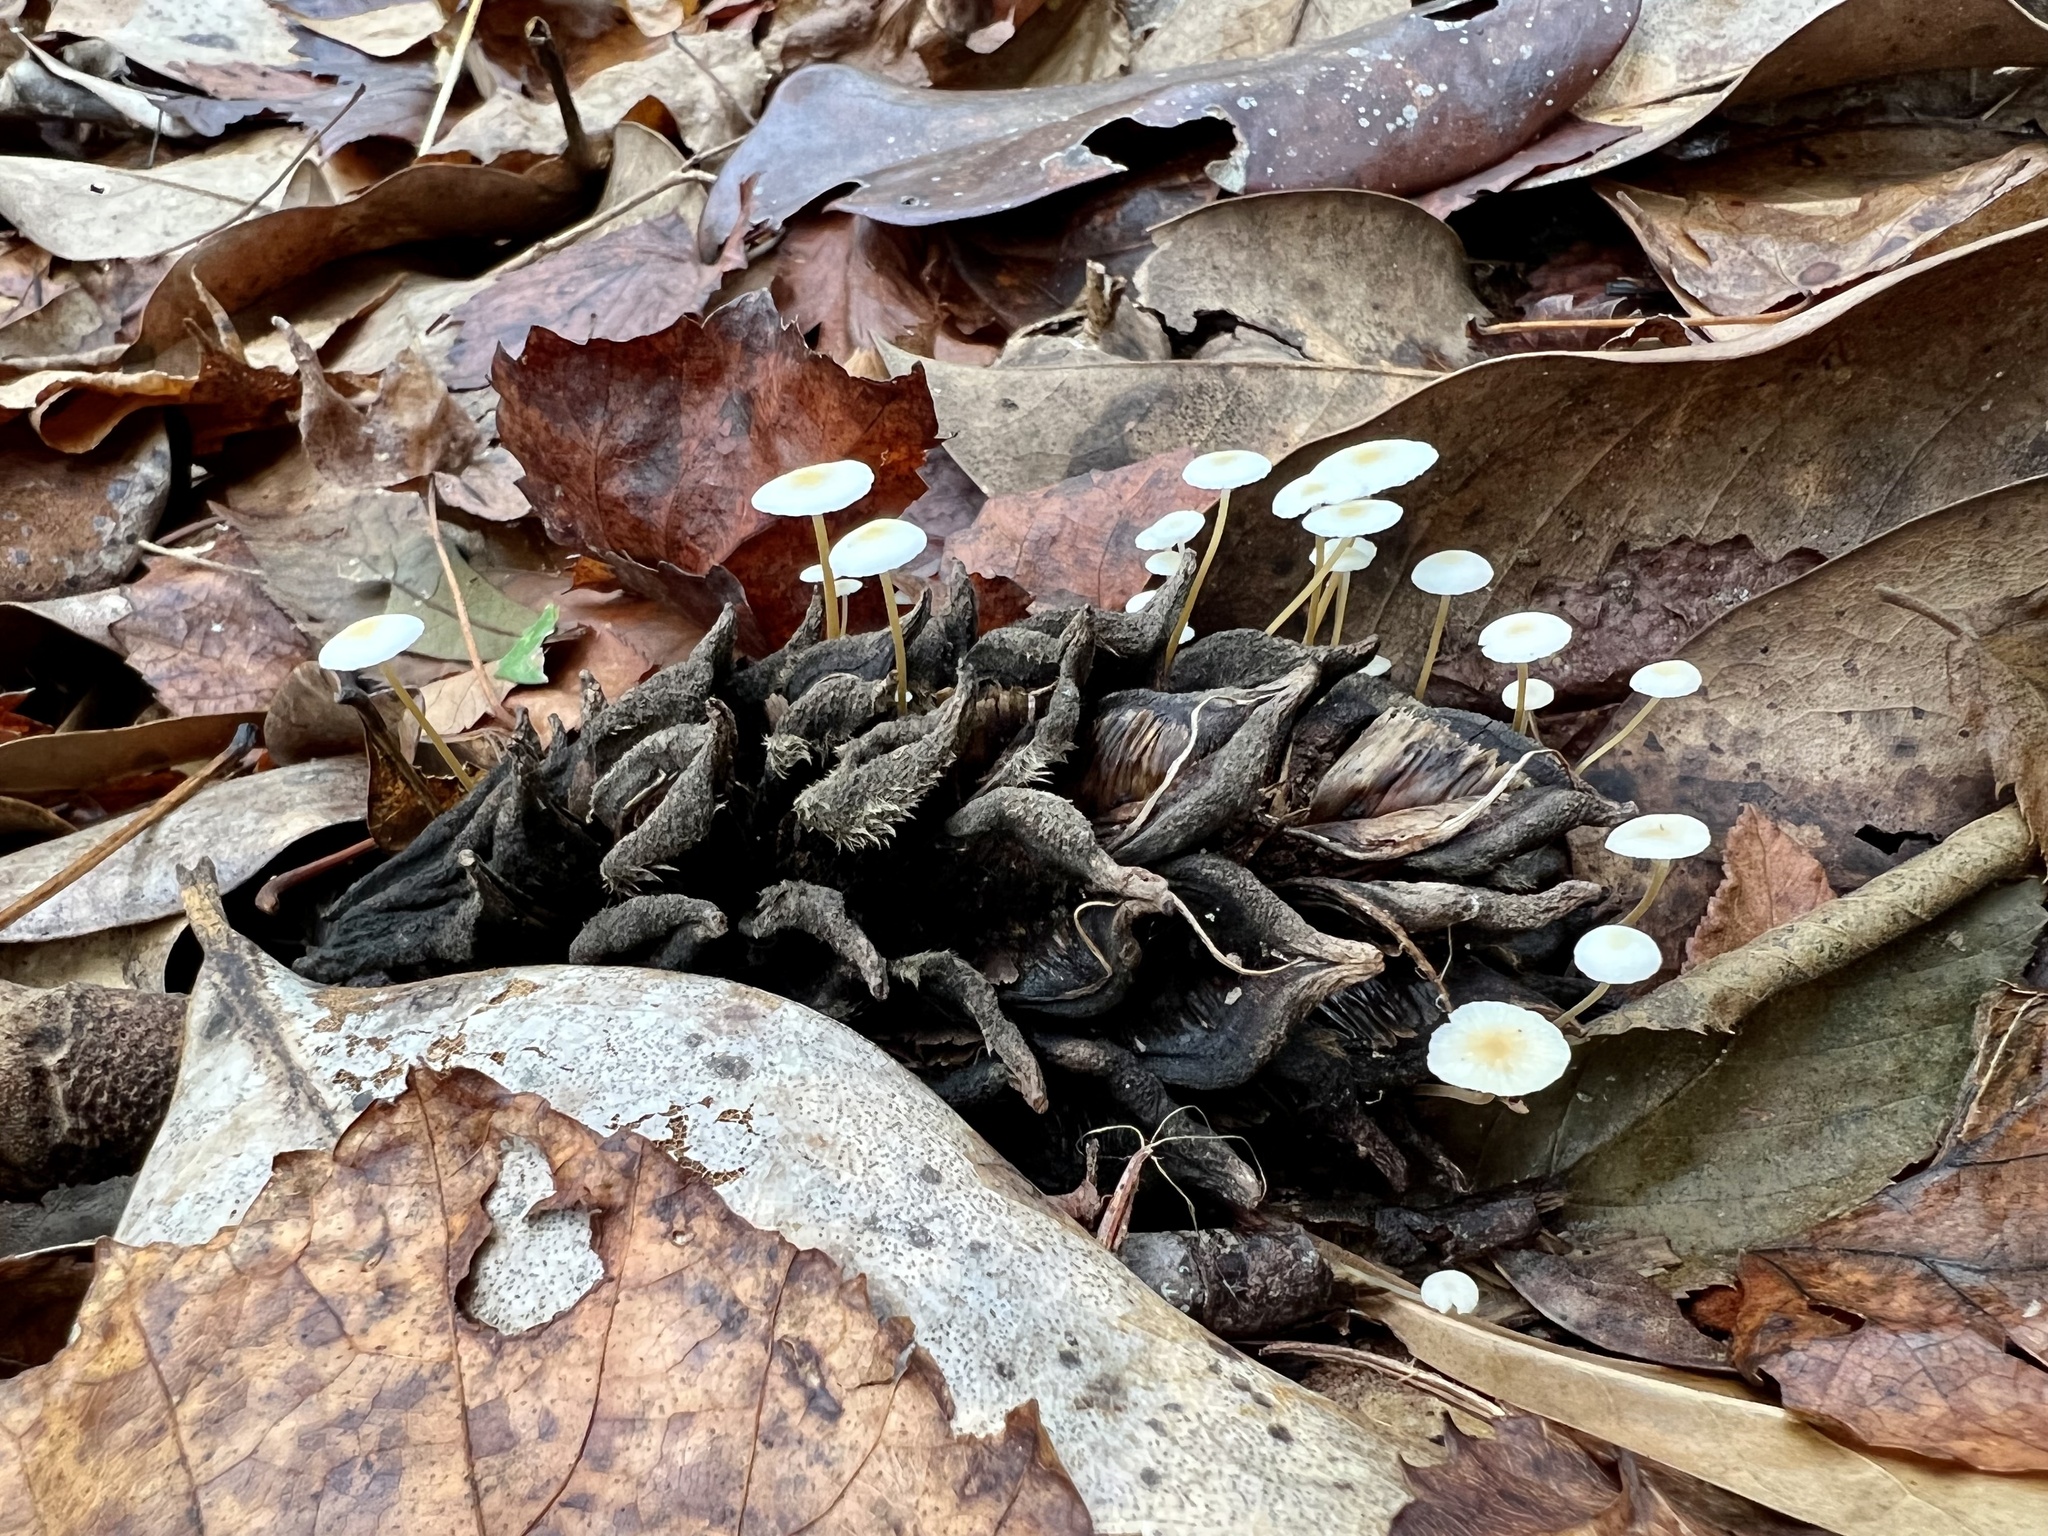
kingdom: Fungi
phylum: Basidiomycota
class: Agaricomycetes
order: Agaricales
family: Physalacriaceae
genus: Strobilurus
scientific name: Strobilurus conigenoides
